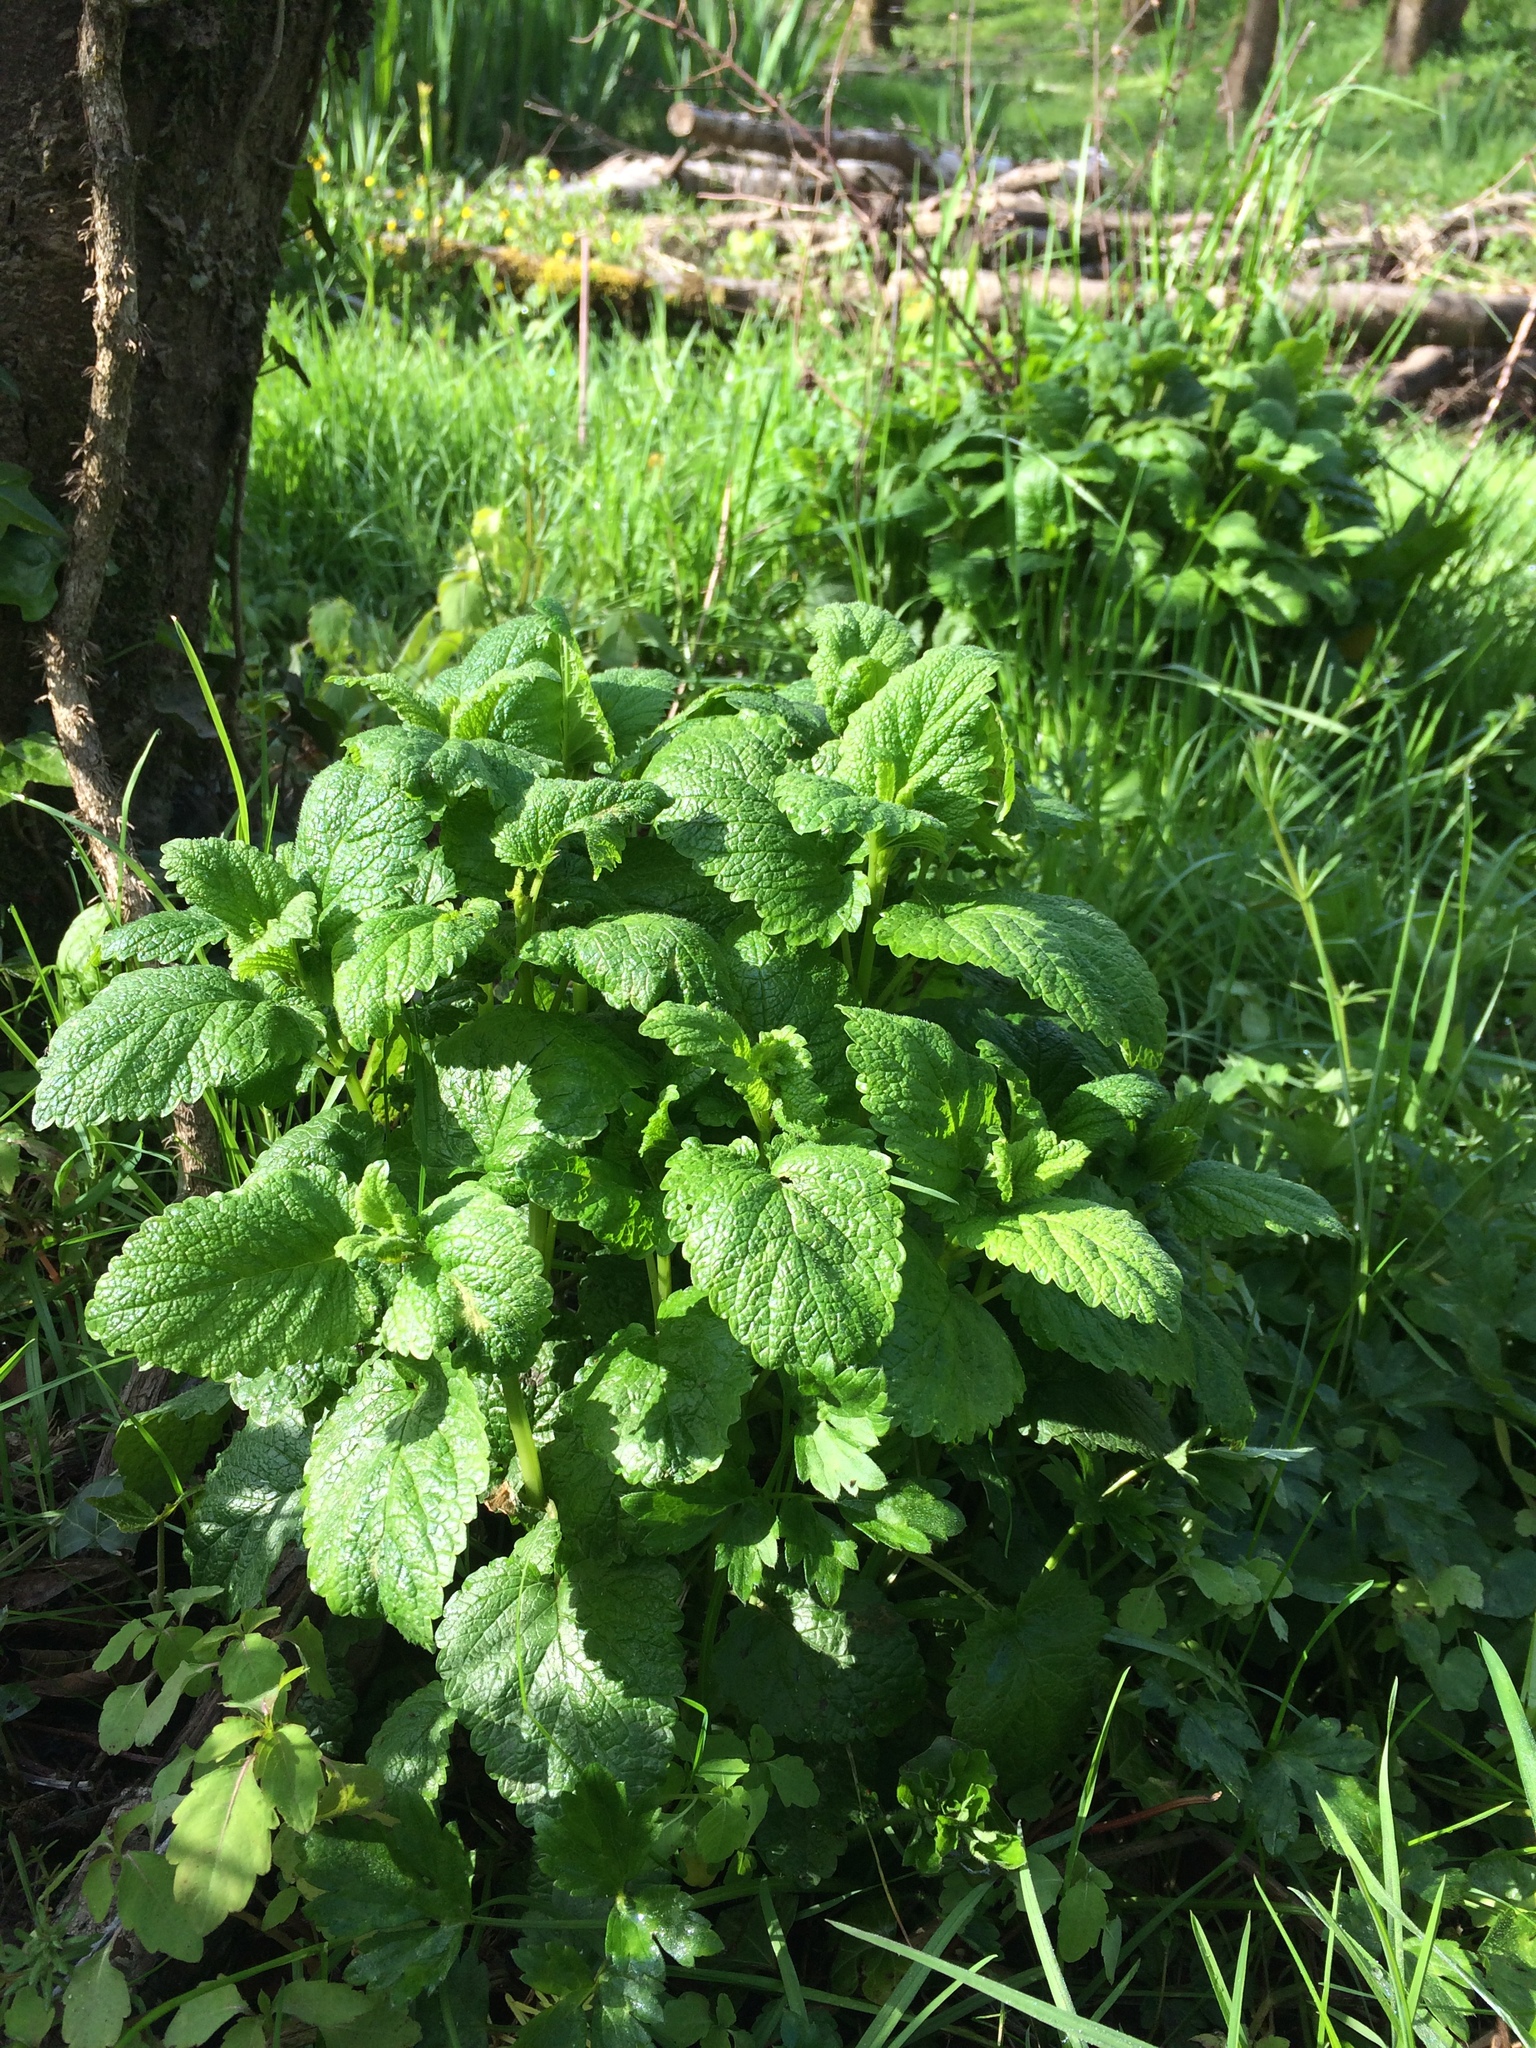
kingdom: Plantae
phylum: Tracheophyta
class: Magnoliopsida
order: Lamiales
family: Lamiaceae
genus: Melissa
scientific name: Melissa officinalis
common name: Balm
